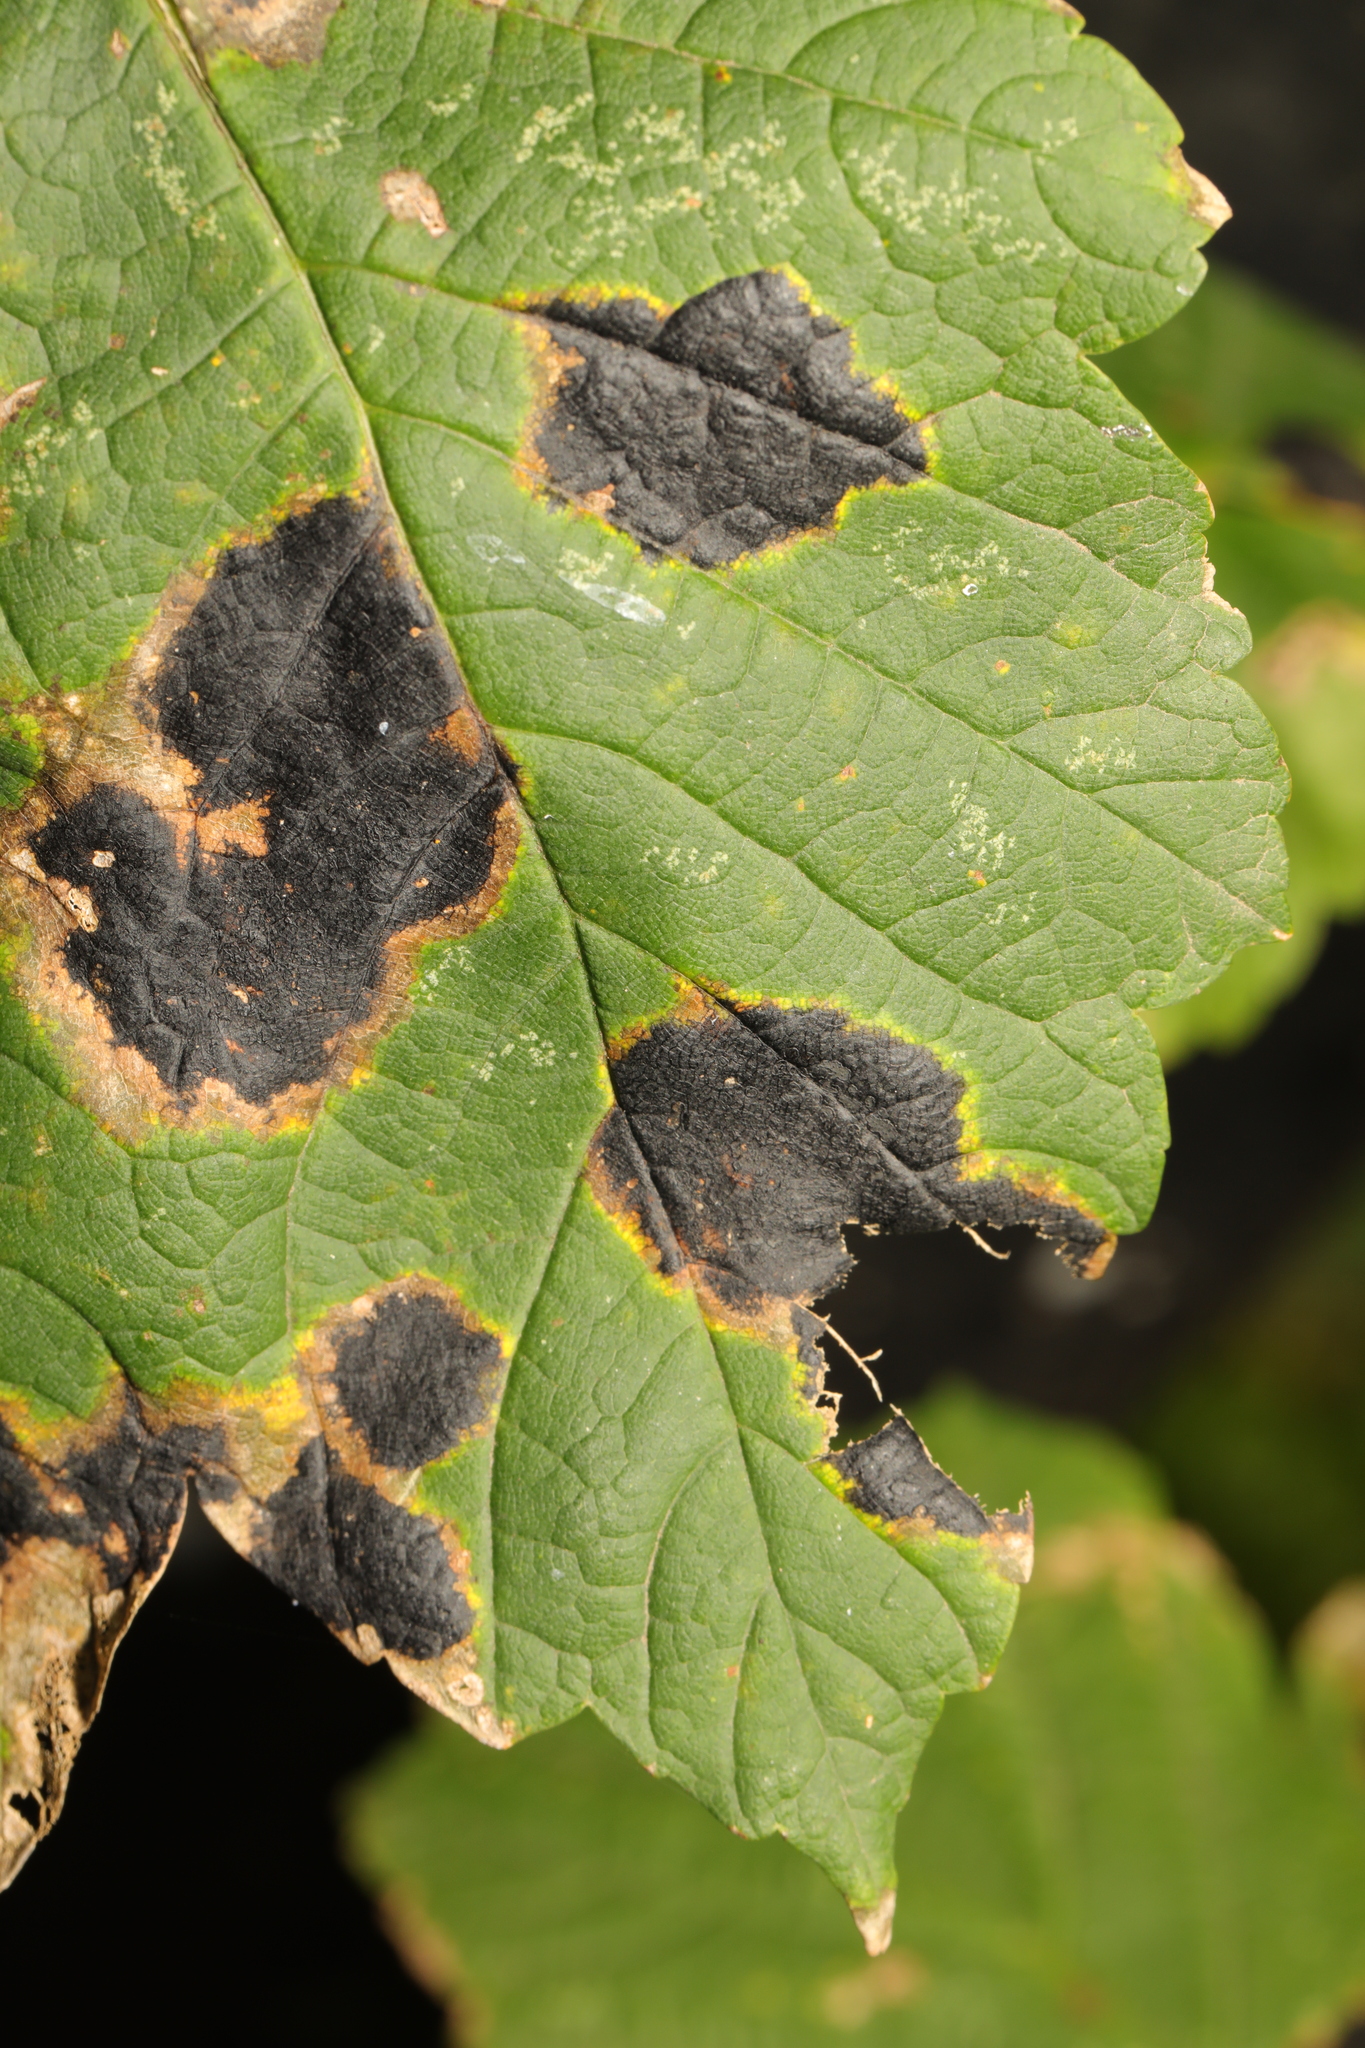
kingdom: Fungi
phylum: Ascomycota
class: Leotiomycetes
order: Rhytismatales
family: Rhytismataceae
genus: Rhytisma
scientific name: Rhytisma acerinum
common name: European tar spot
